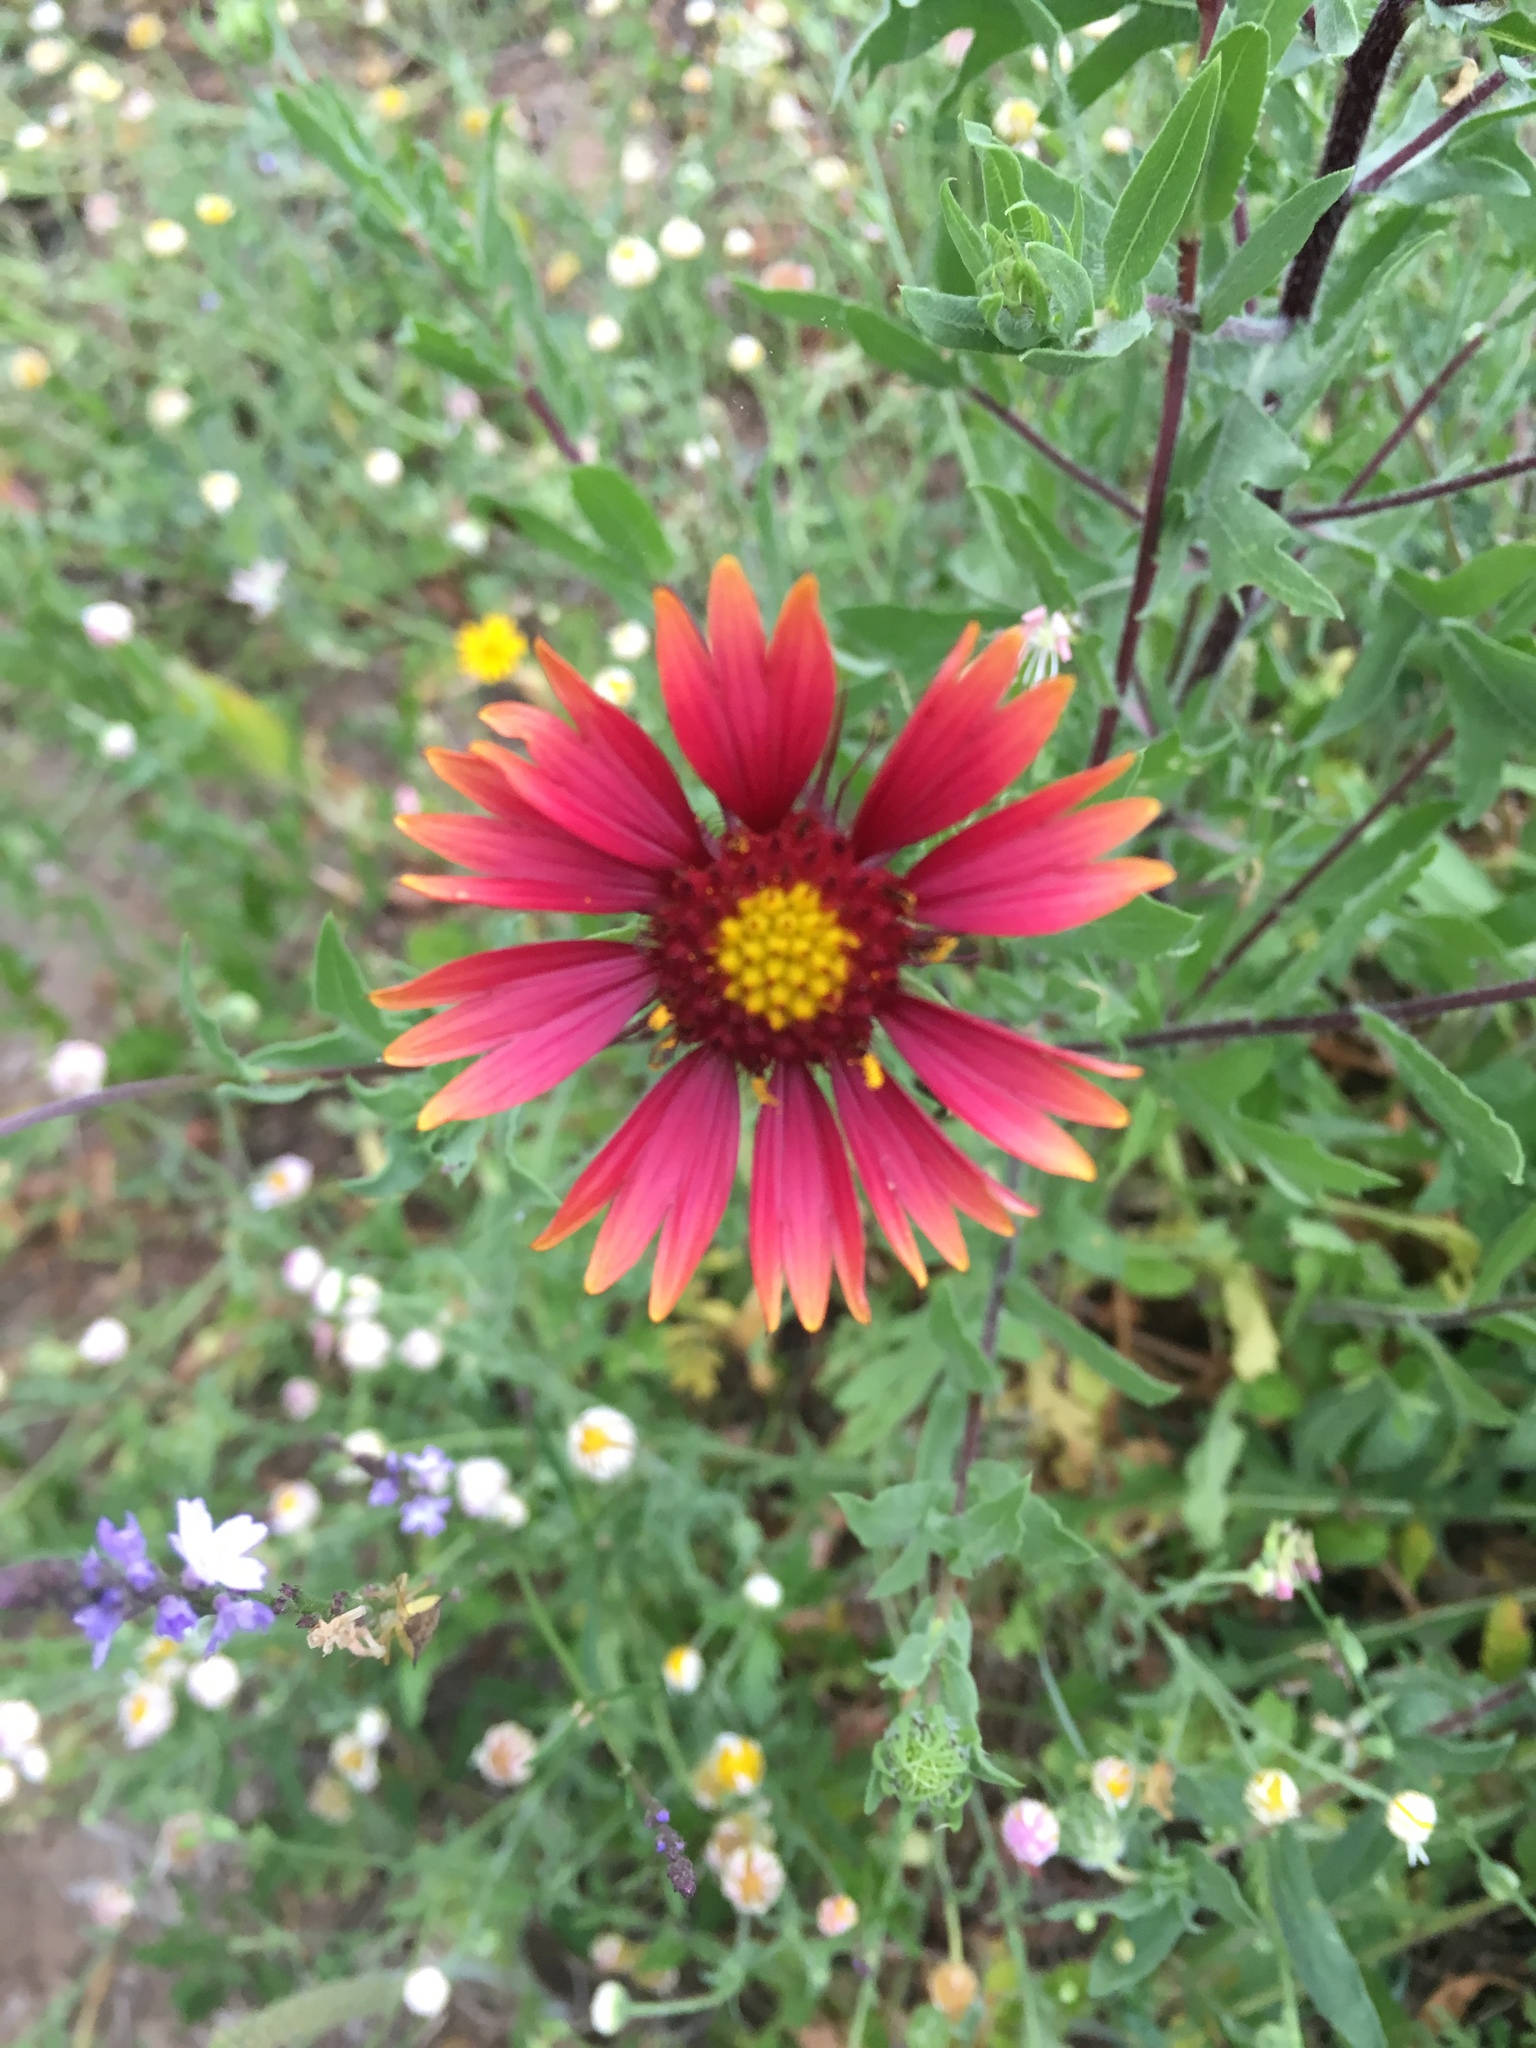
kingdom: Plantae
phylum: Tracheophyta
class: Magnoliopsida
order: Asterales
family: Asteraceae
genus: Gaillardia
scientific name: Gaillardia pulchella
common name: Firewheel
